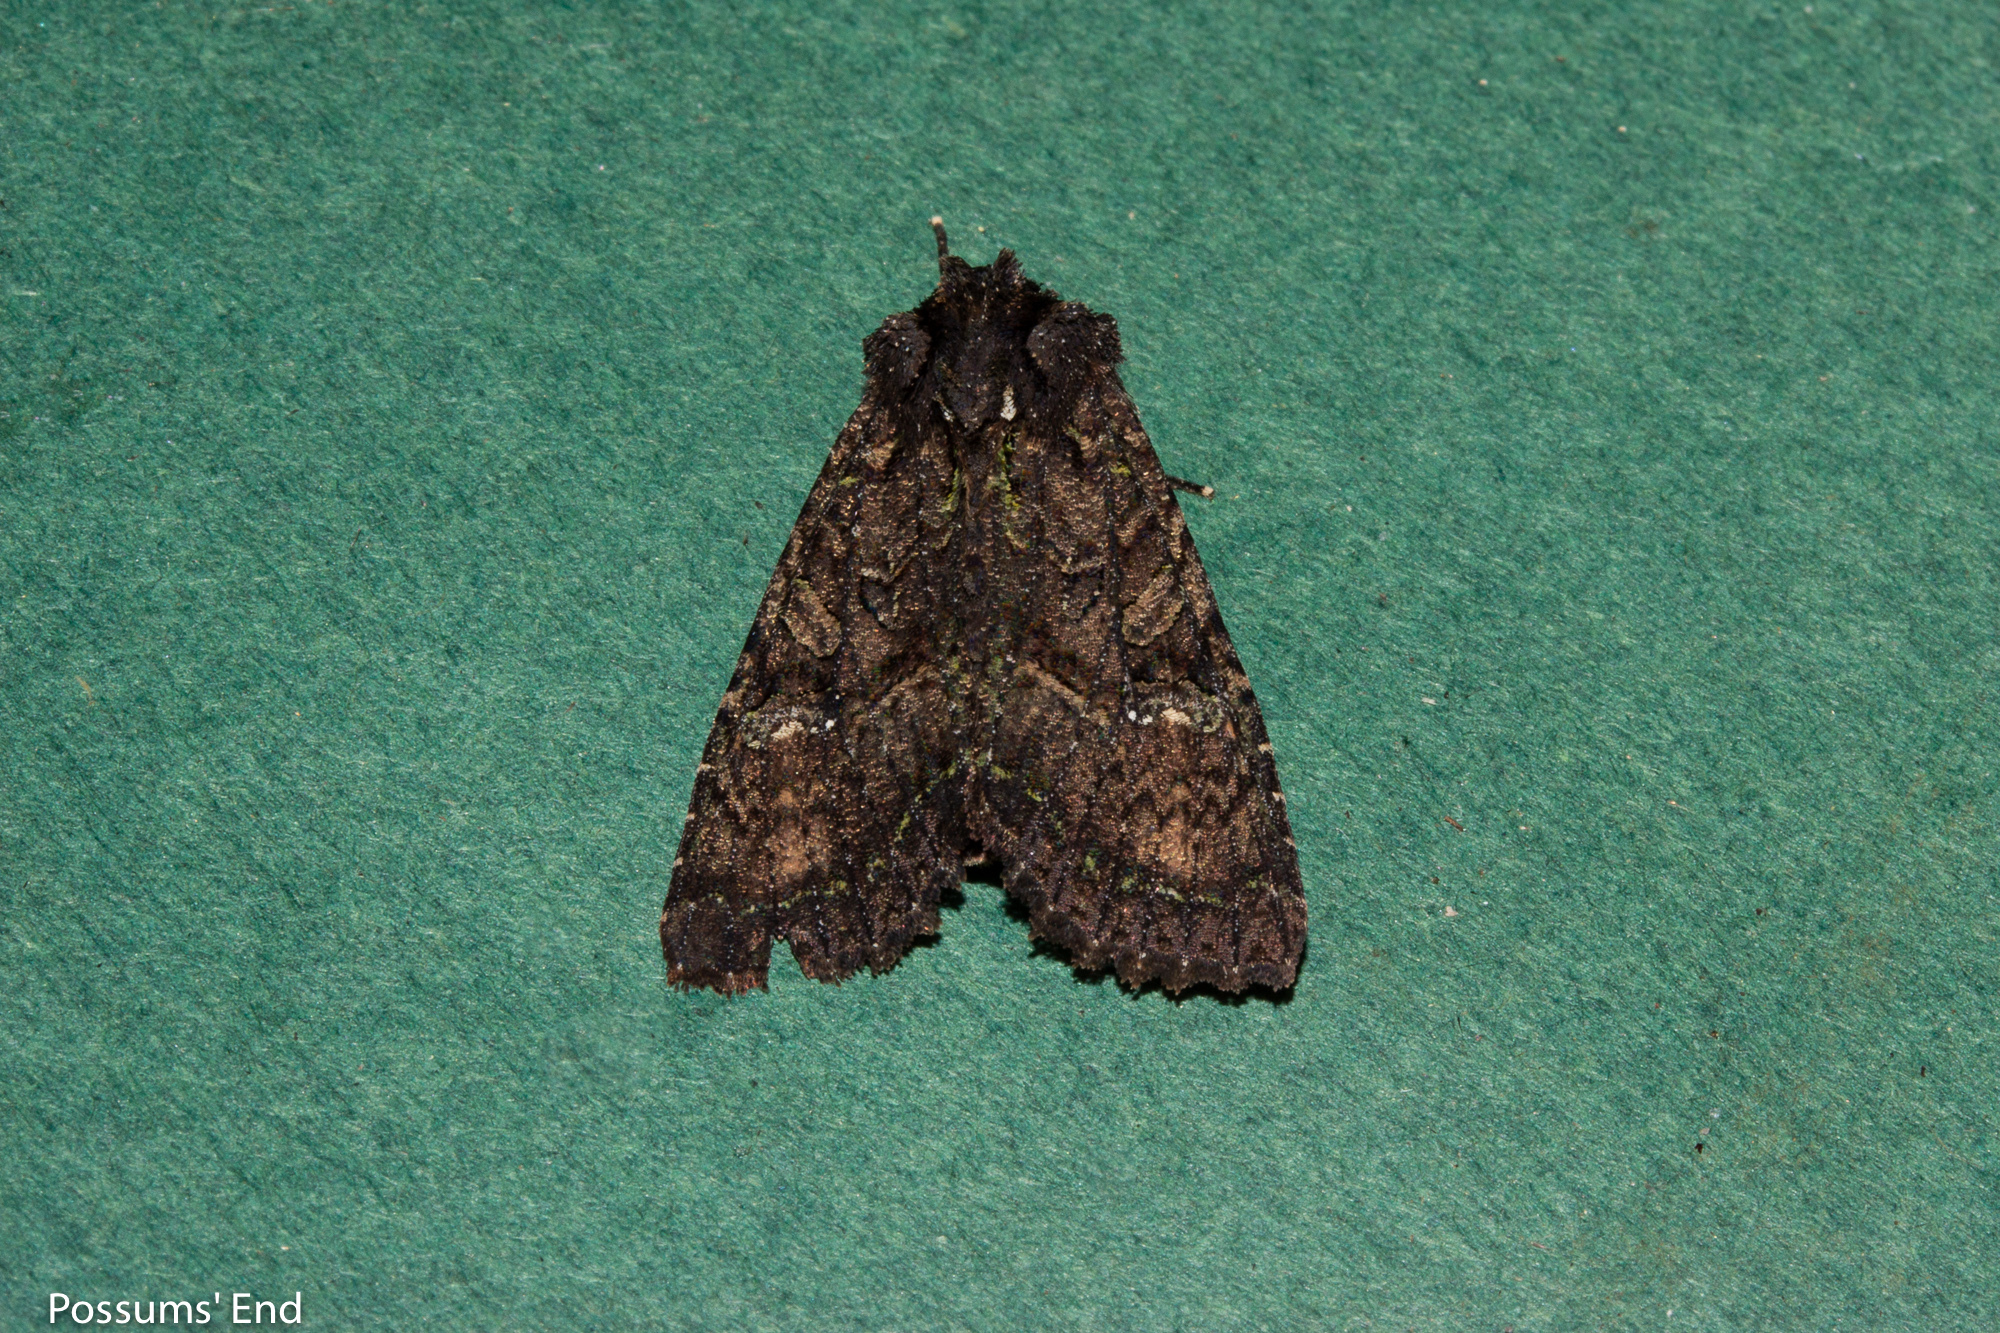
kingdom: Animalia
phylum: Arthropoda
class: Insecta
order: Lepidoptera
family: Noctuidae
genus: Meterana
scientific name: Meterana ochthistis
